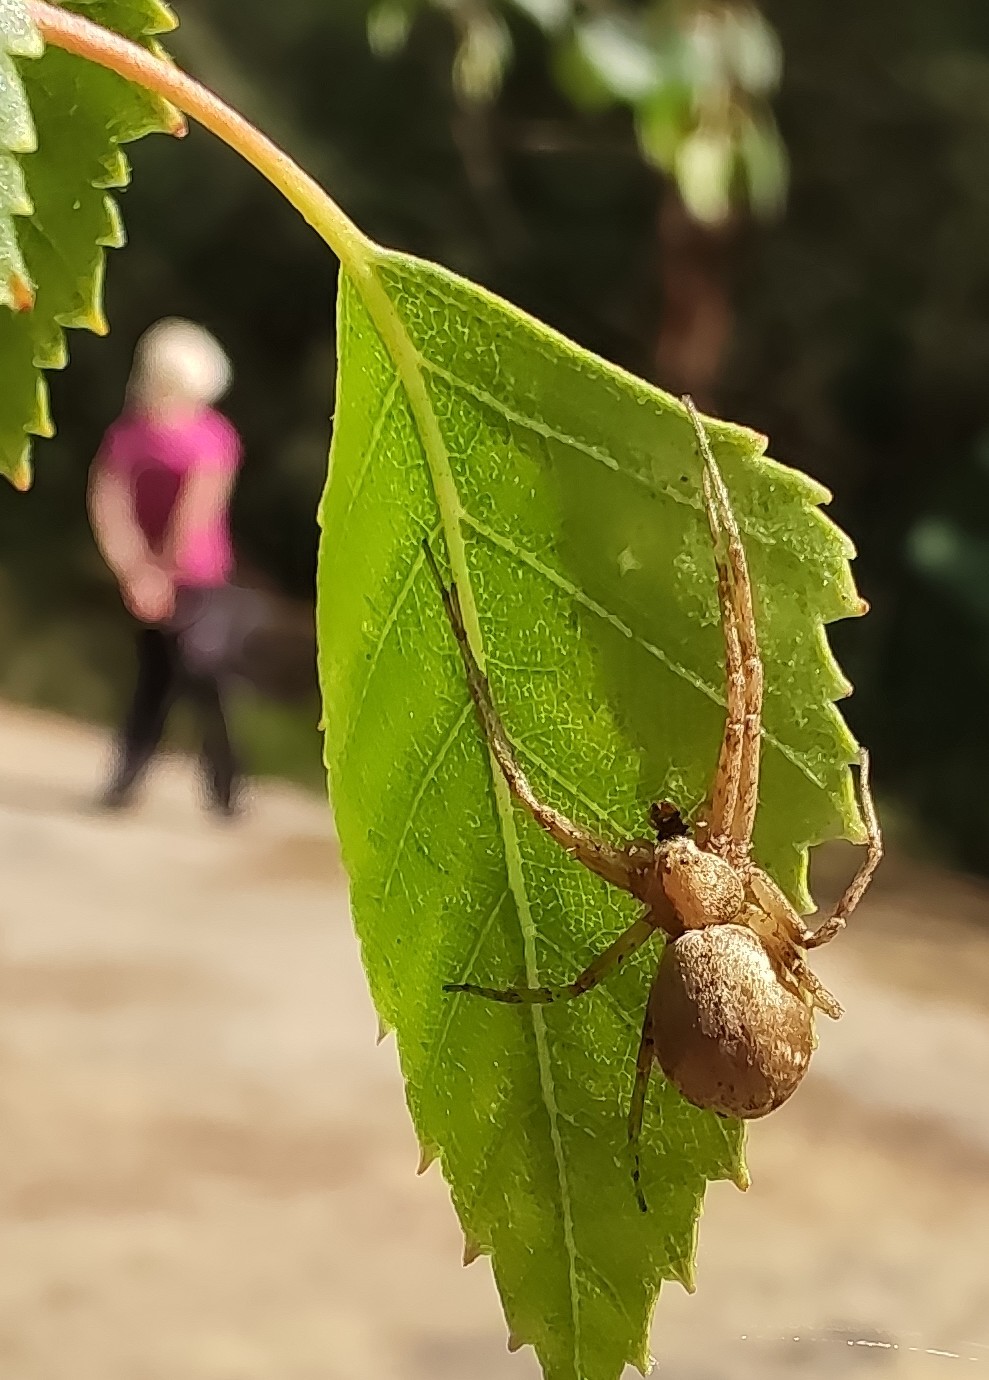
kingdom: Animalia
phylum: Arthropoda
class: Arachnida
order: Araneae
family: Philodromidae
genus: Philodromus
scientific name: Philodromus
